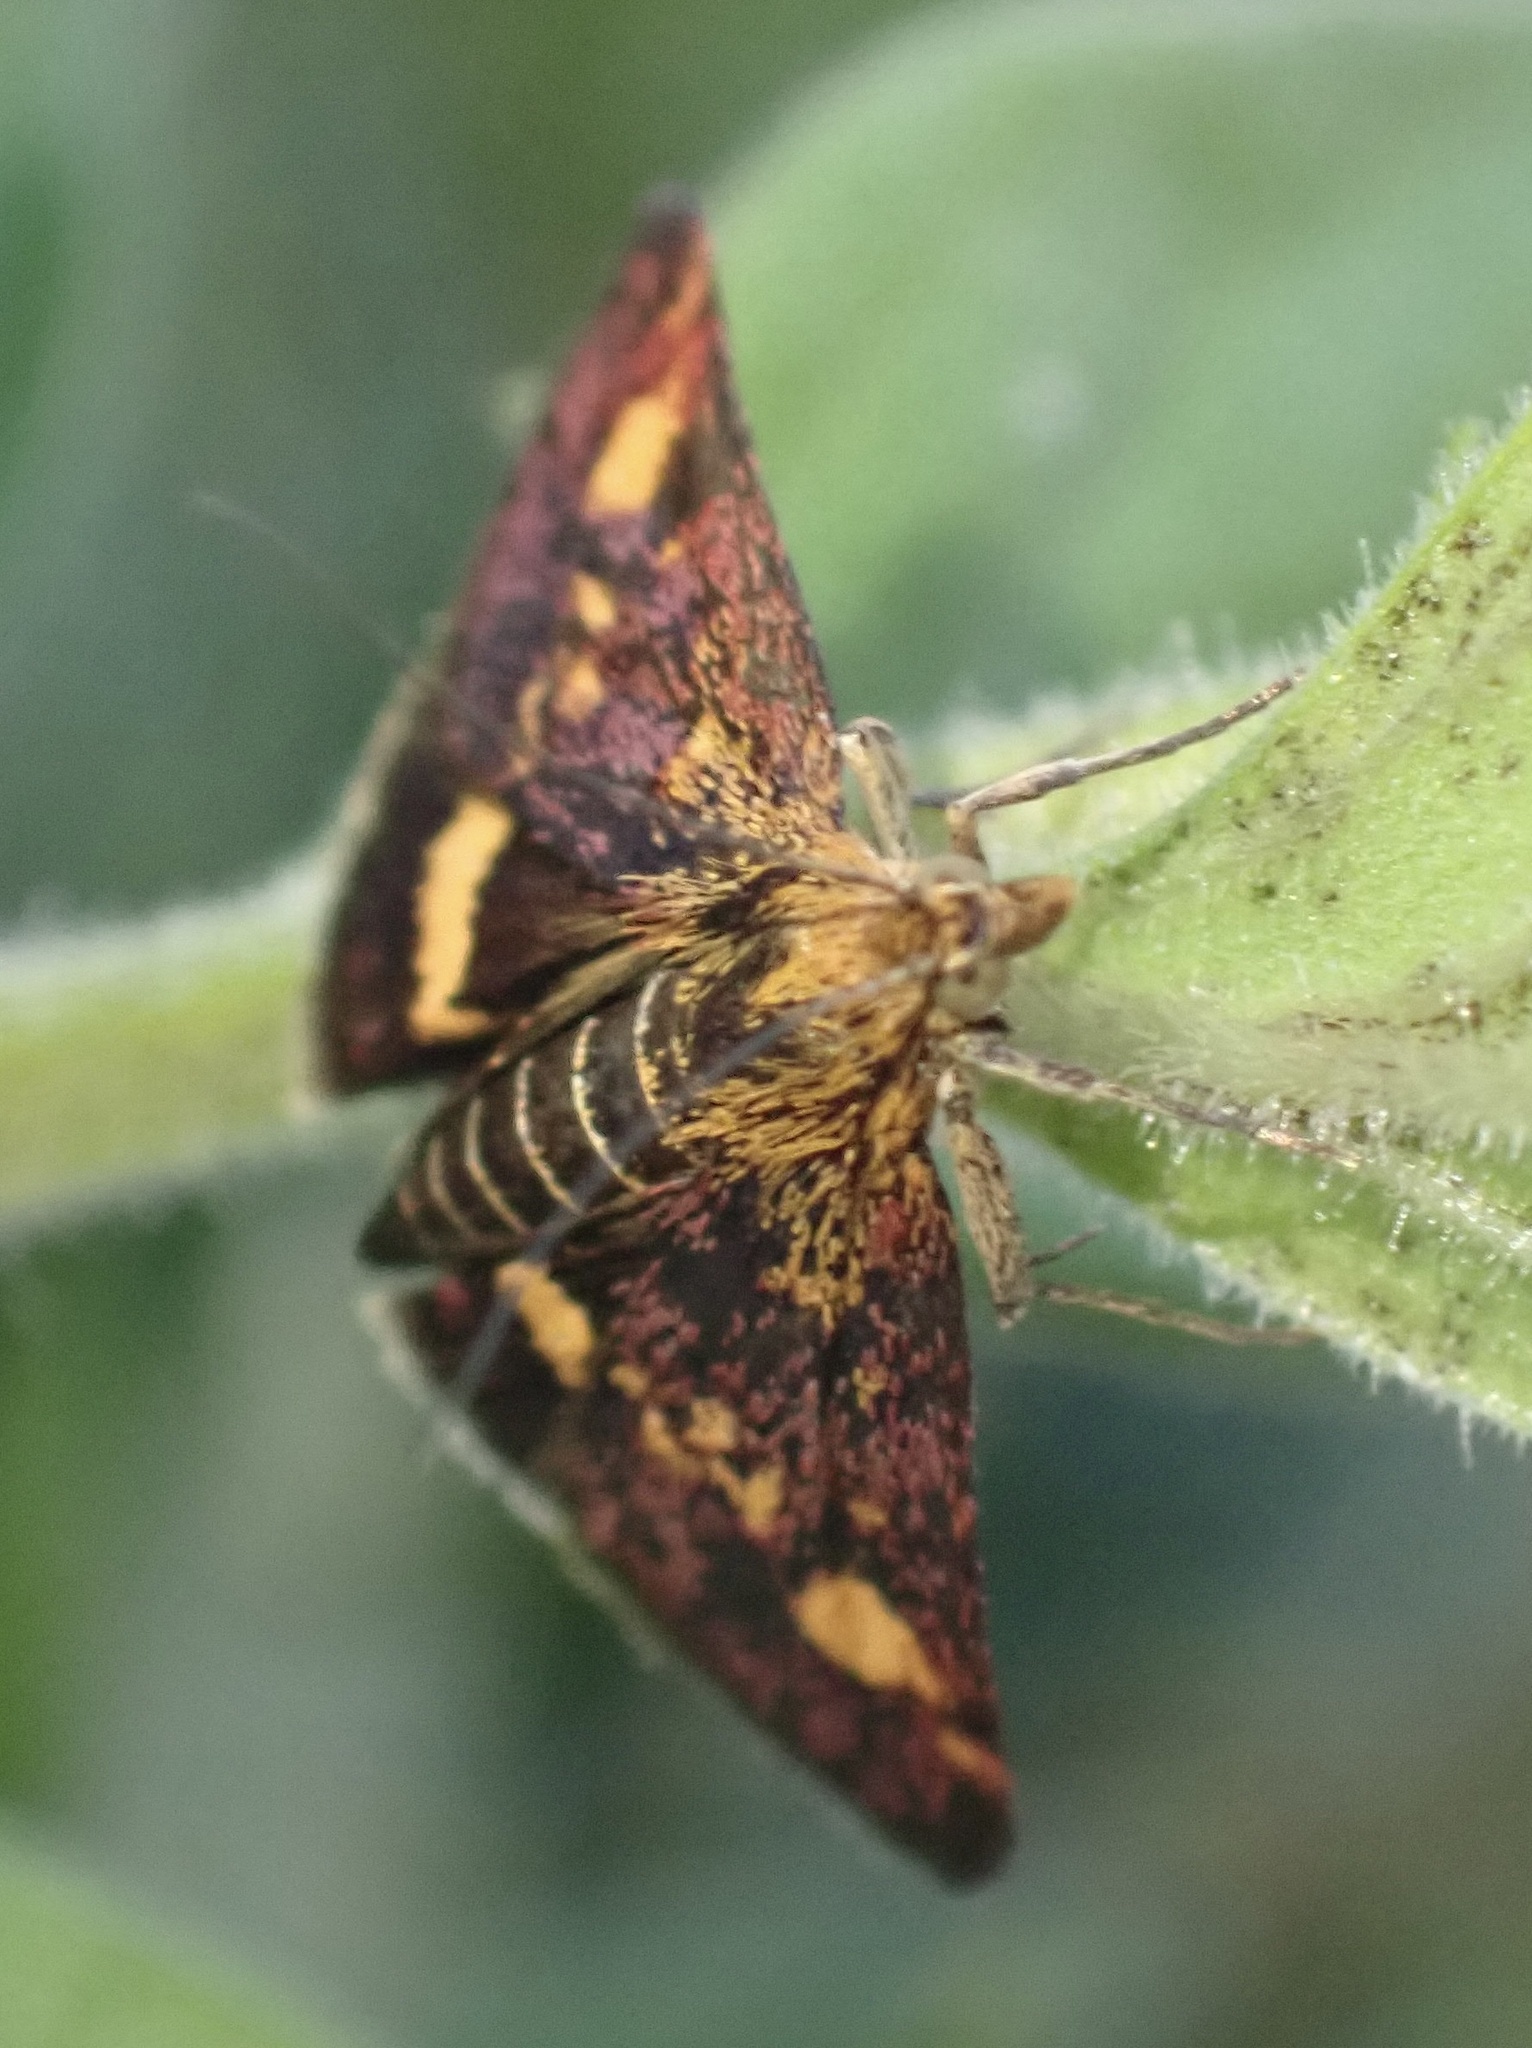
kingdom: Animalia
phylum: Arthropoda
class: Insecta
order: Lepidoptera
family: Crambidae
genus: Pyrausta
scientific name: Pyrausta aurata
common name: Small purple & gold
